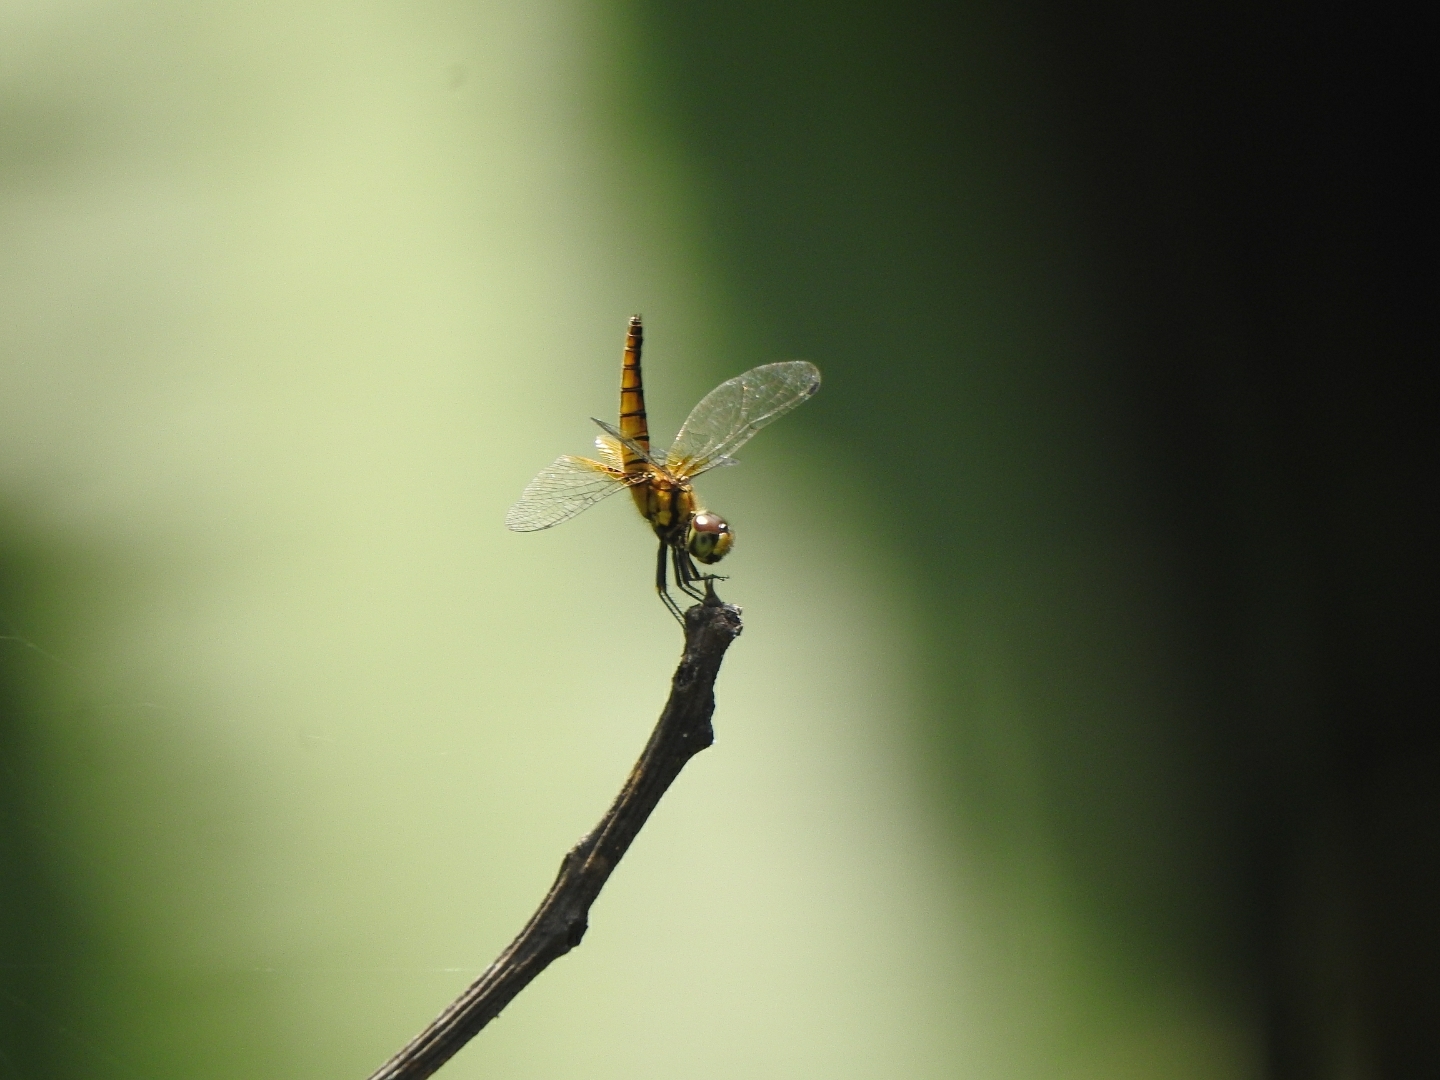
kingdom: Animalia
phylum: Arthropoda
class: Insecta
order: Odonata
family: Libellulidae
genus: Aethriamanta
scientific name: Aethriamanta brevipennis
